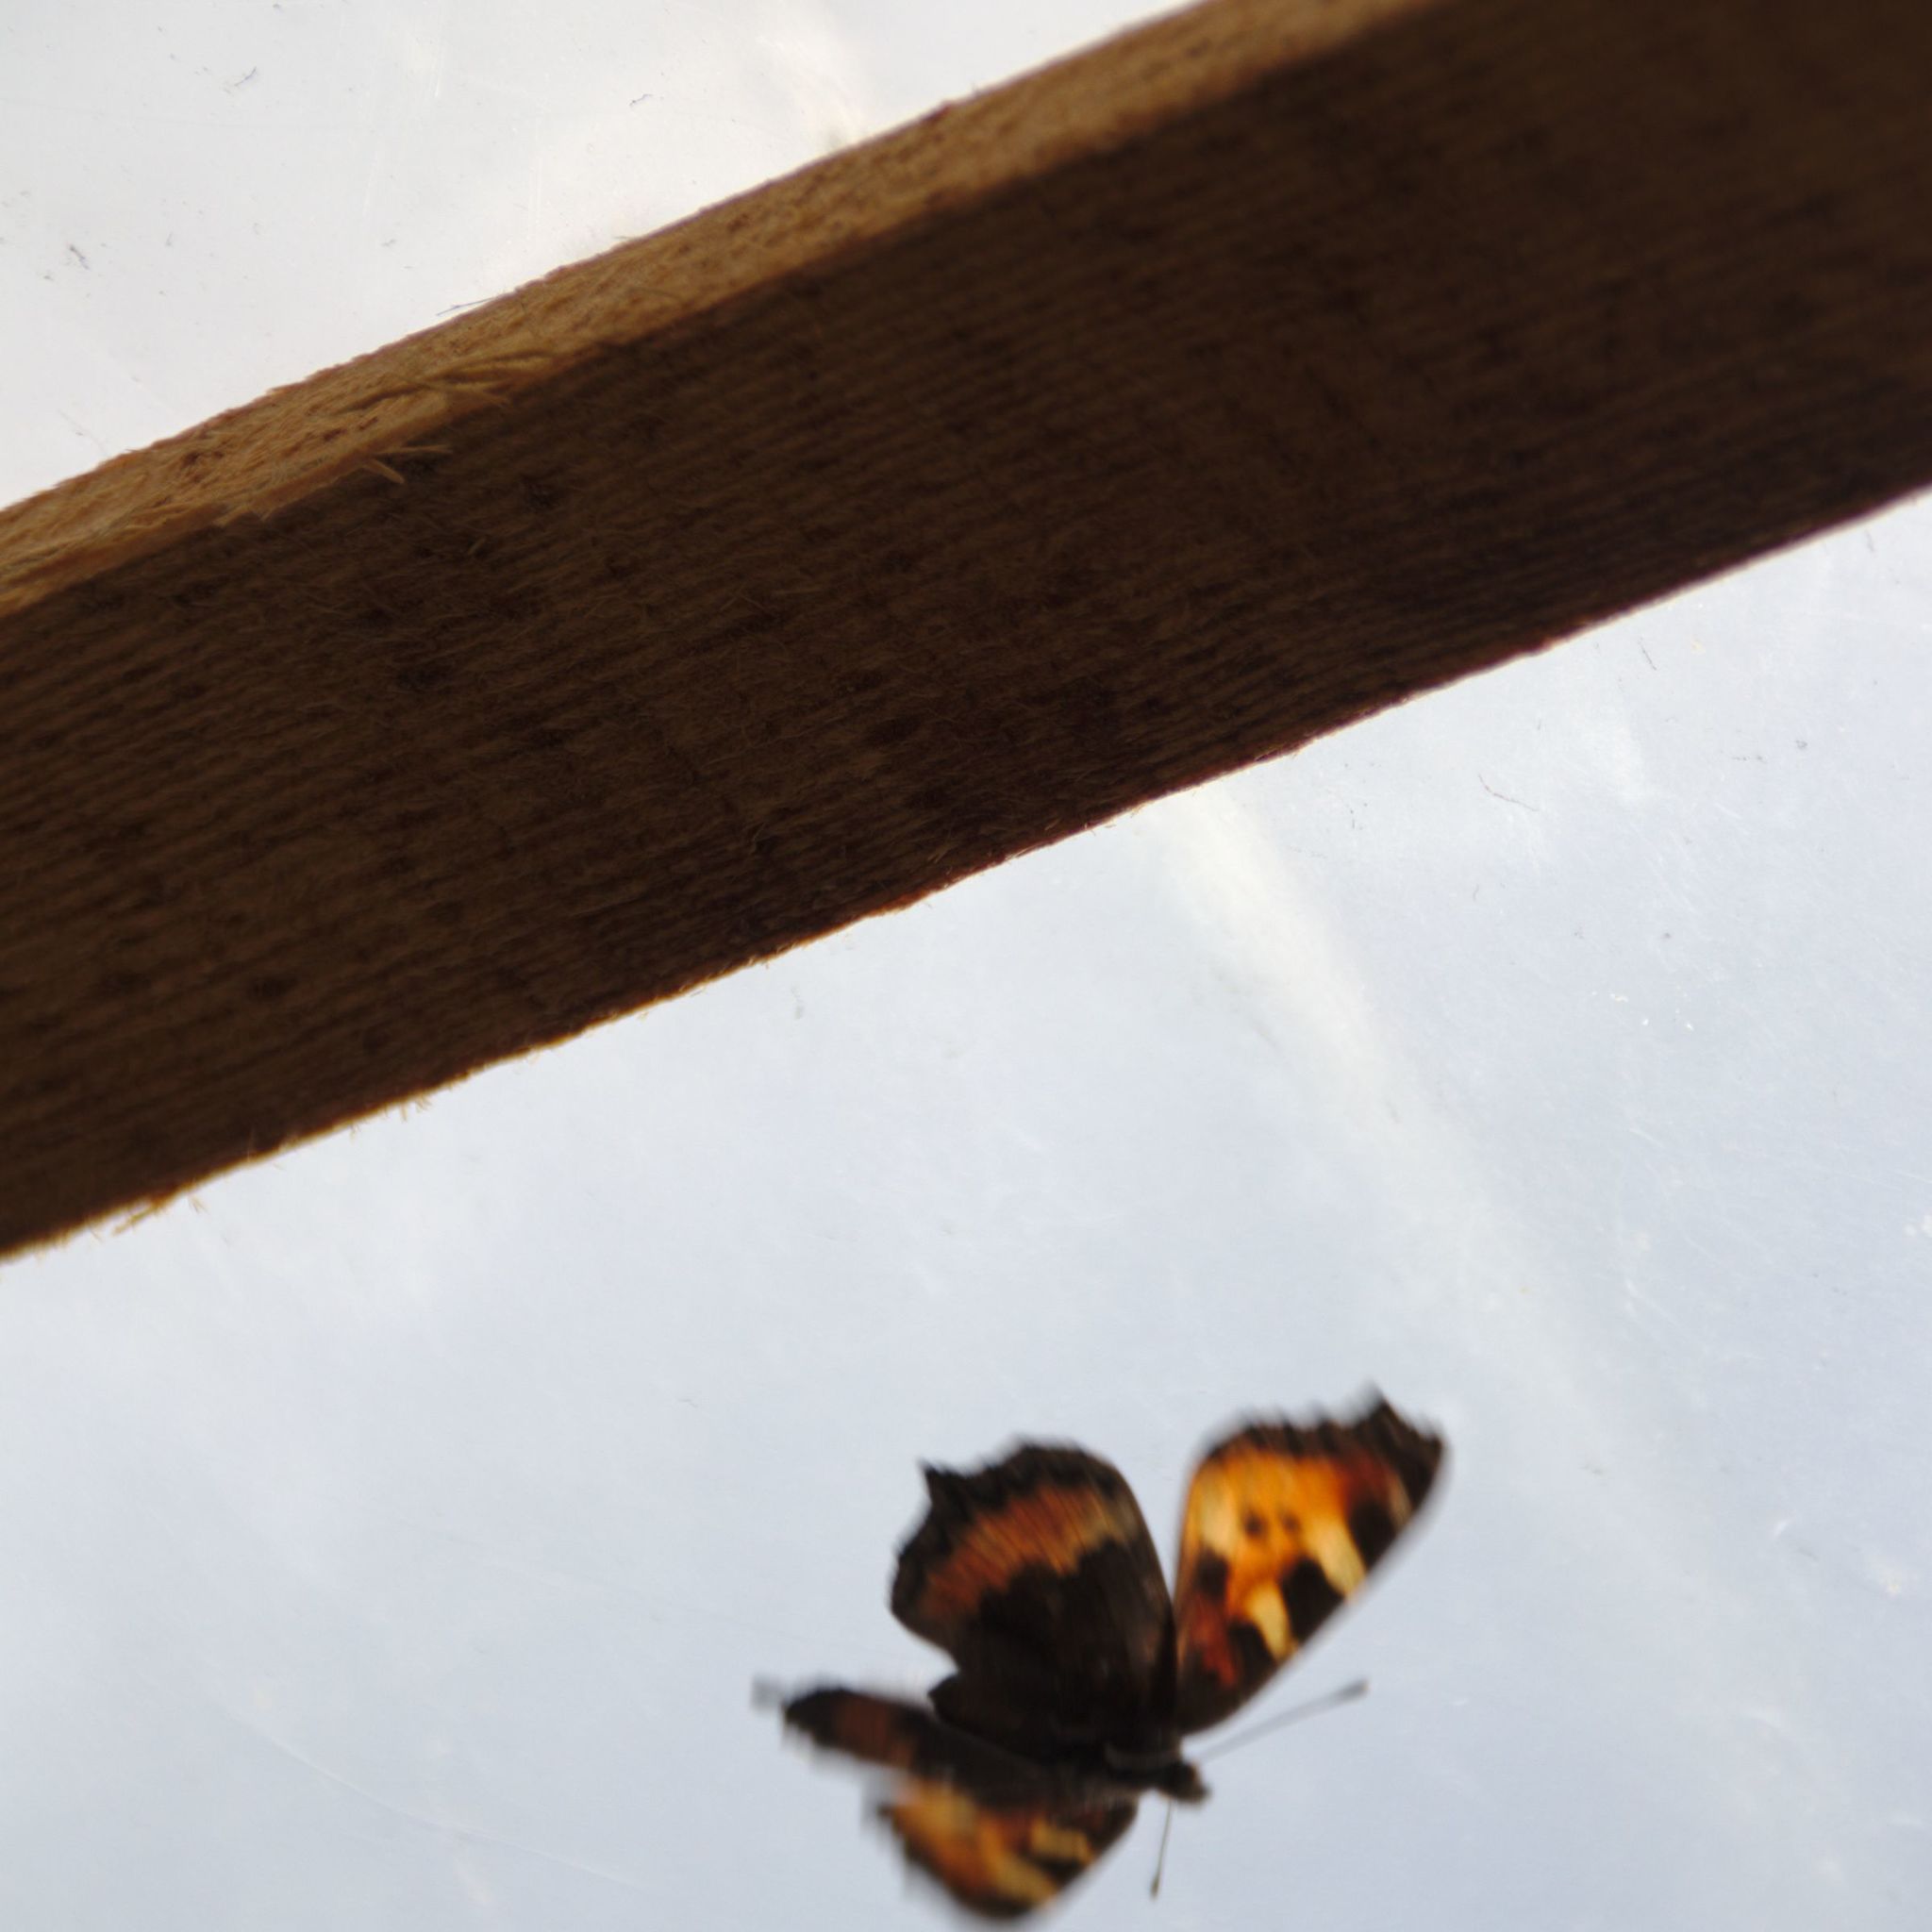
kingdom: Animalia
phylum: Arthropoda
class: Insecta
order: Lepidoptera
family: Nymphalidae
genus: Aglais
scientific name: Aglais urticae
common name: Small tortoiseshell
